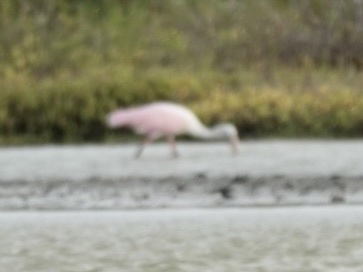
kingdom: Animalia
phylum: Chordata
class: Aves
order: Pelecaniformes
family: Threskiornithidae
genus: Platalea
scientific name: Platalea ajaja
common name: Roseate spoonbill
